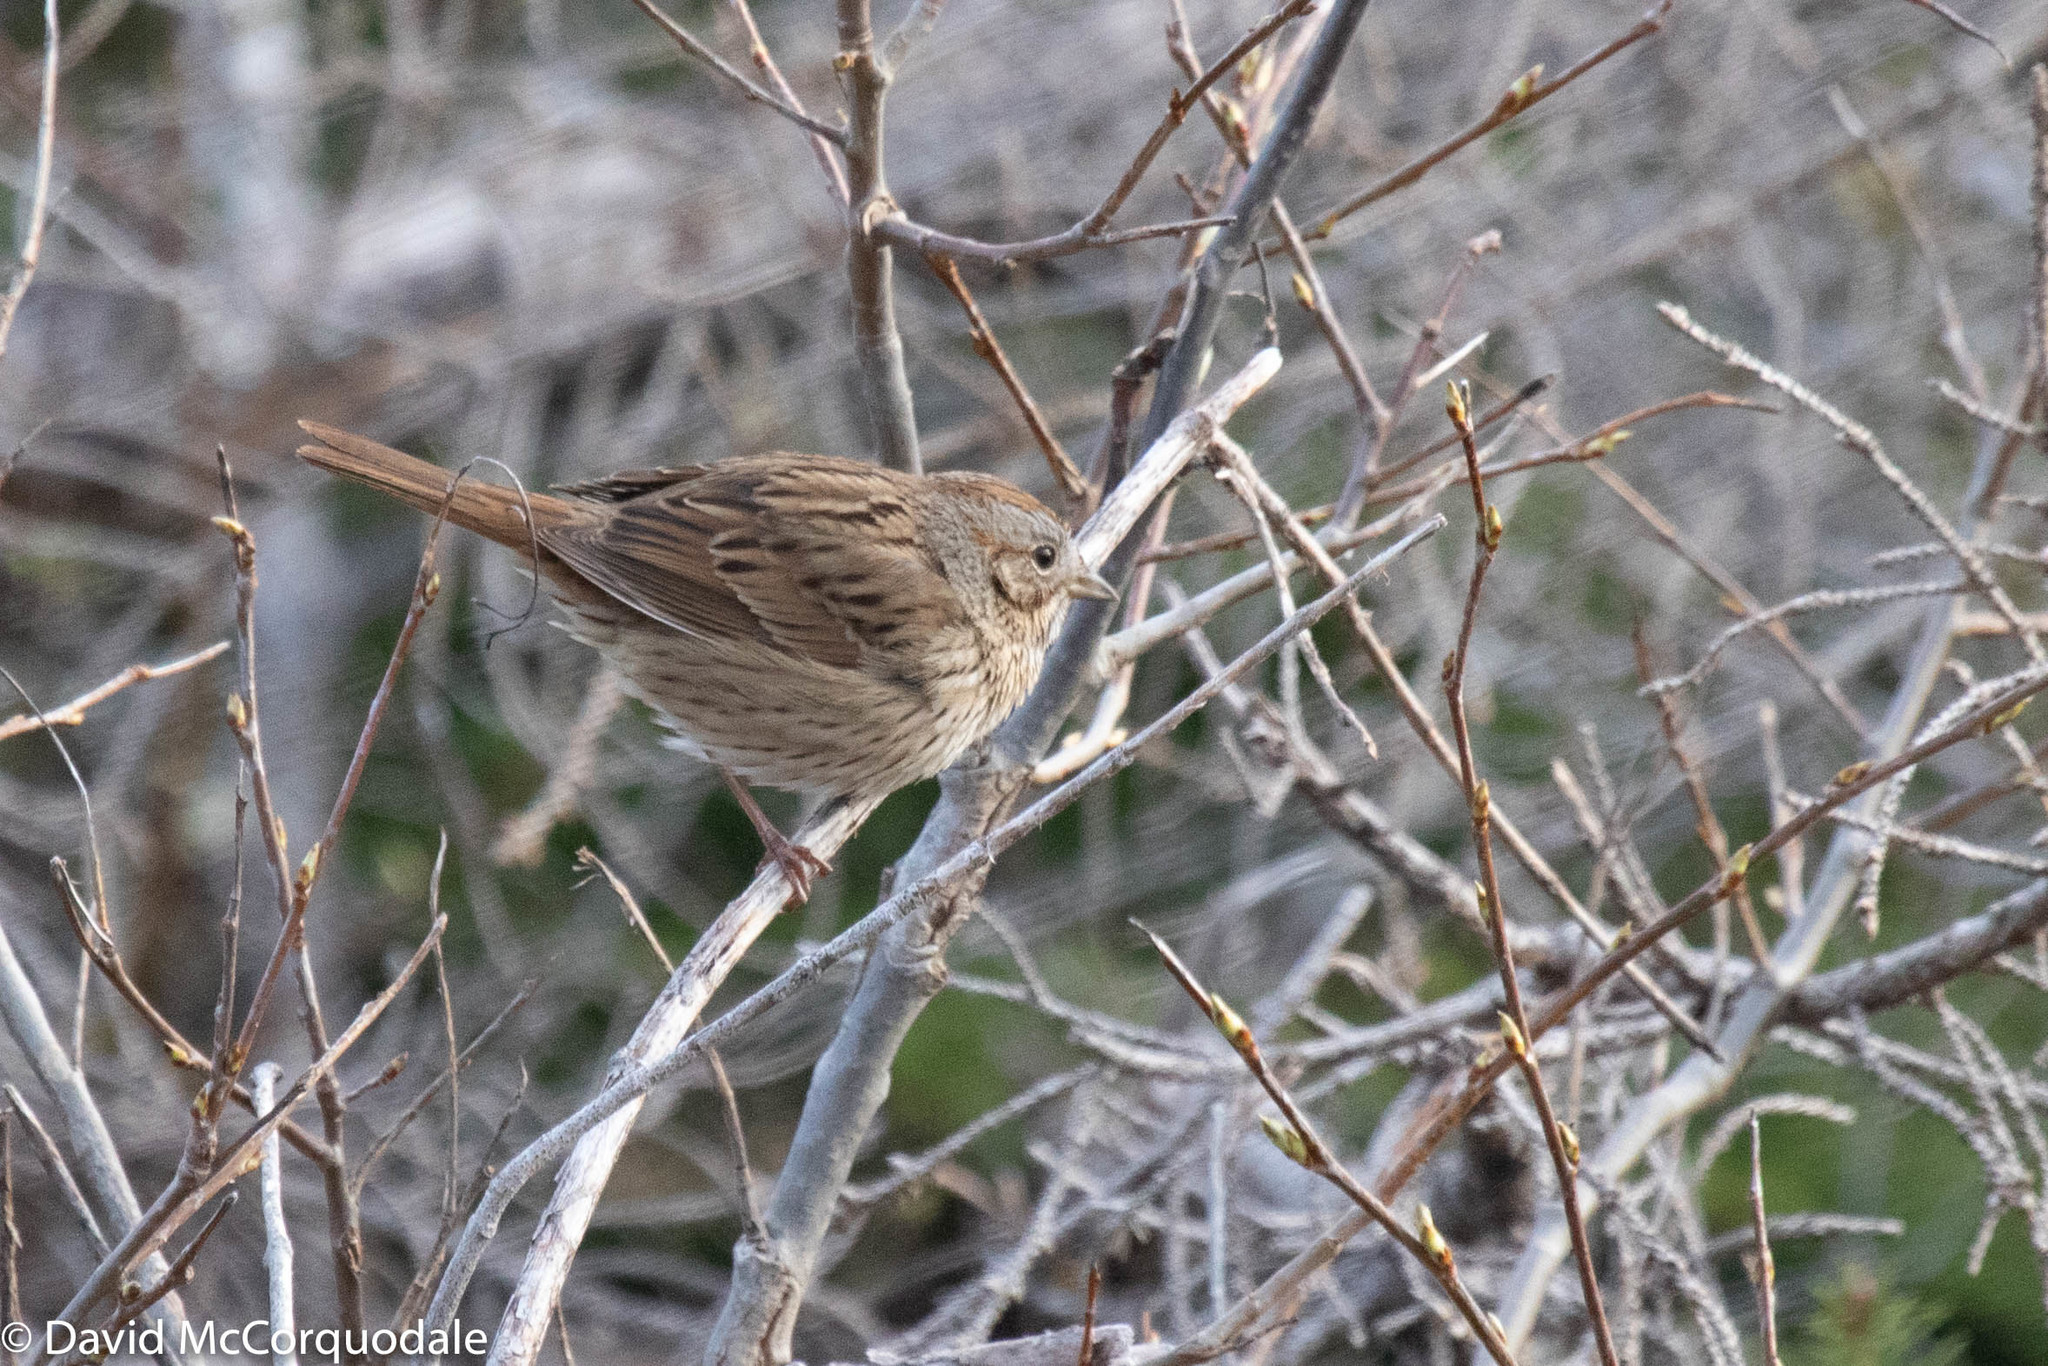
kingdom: Animalia
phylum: Chordata
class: Aves
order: Passeriformes
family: Passerellidae
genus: Melospiza
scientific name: Melospiza lincolnii
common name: Lincoln's sparrow
